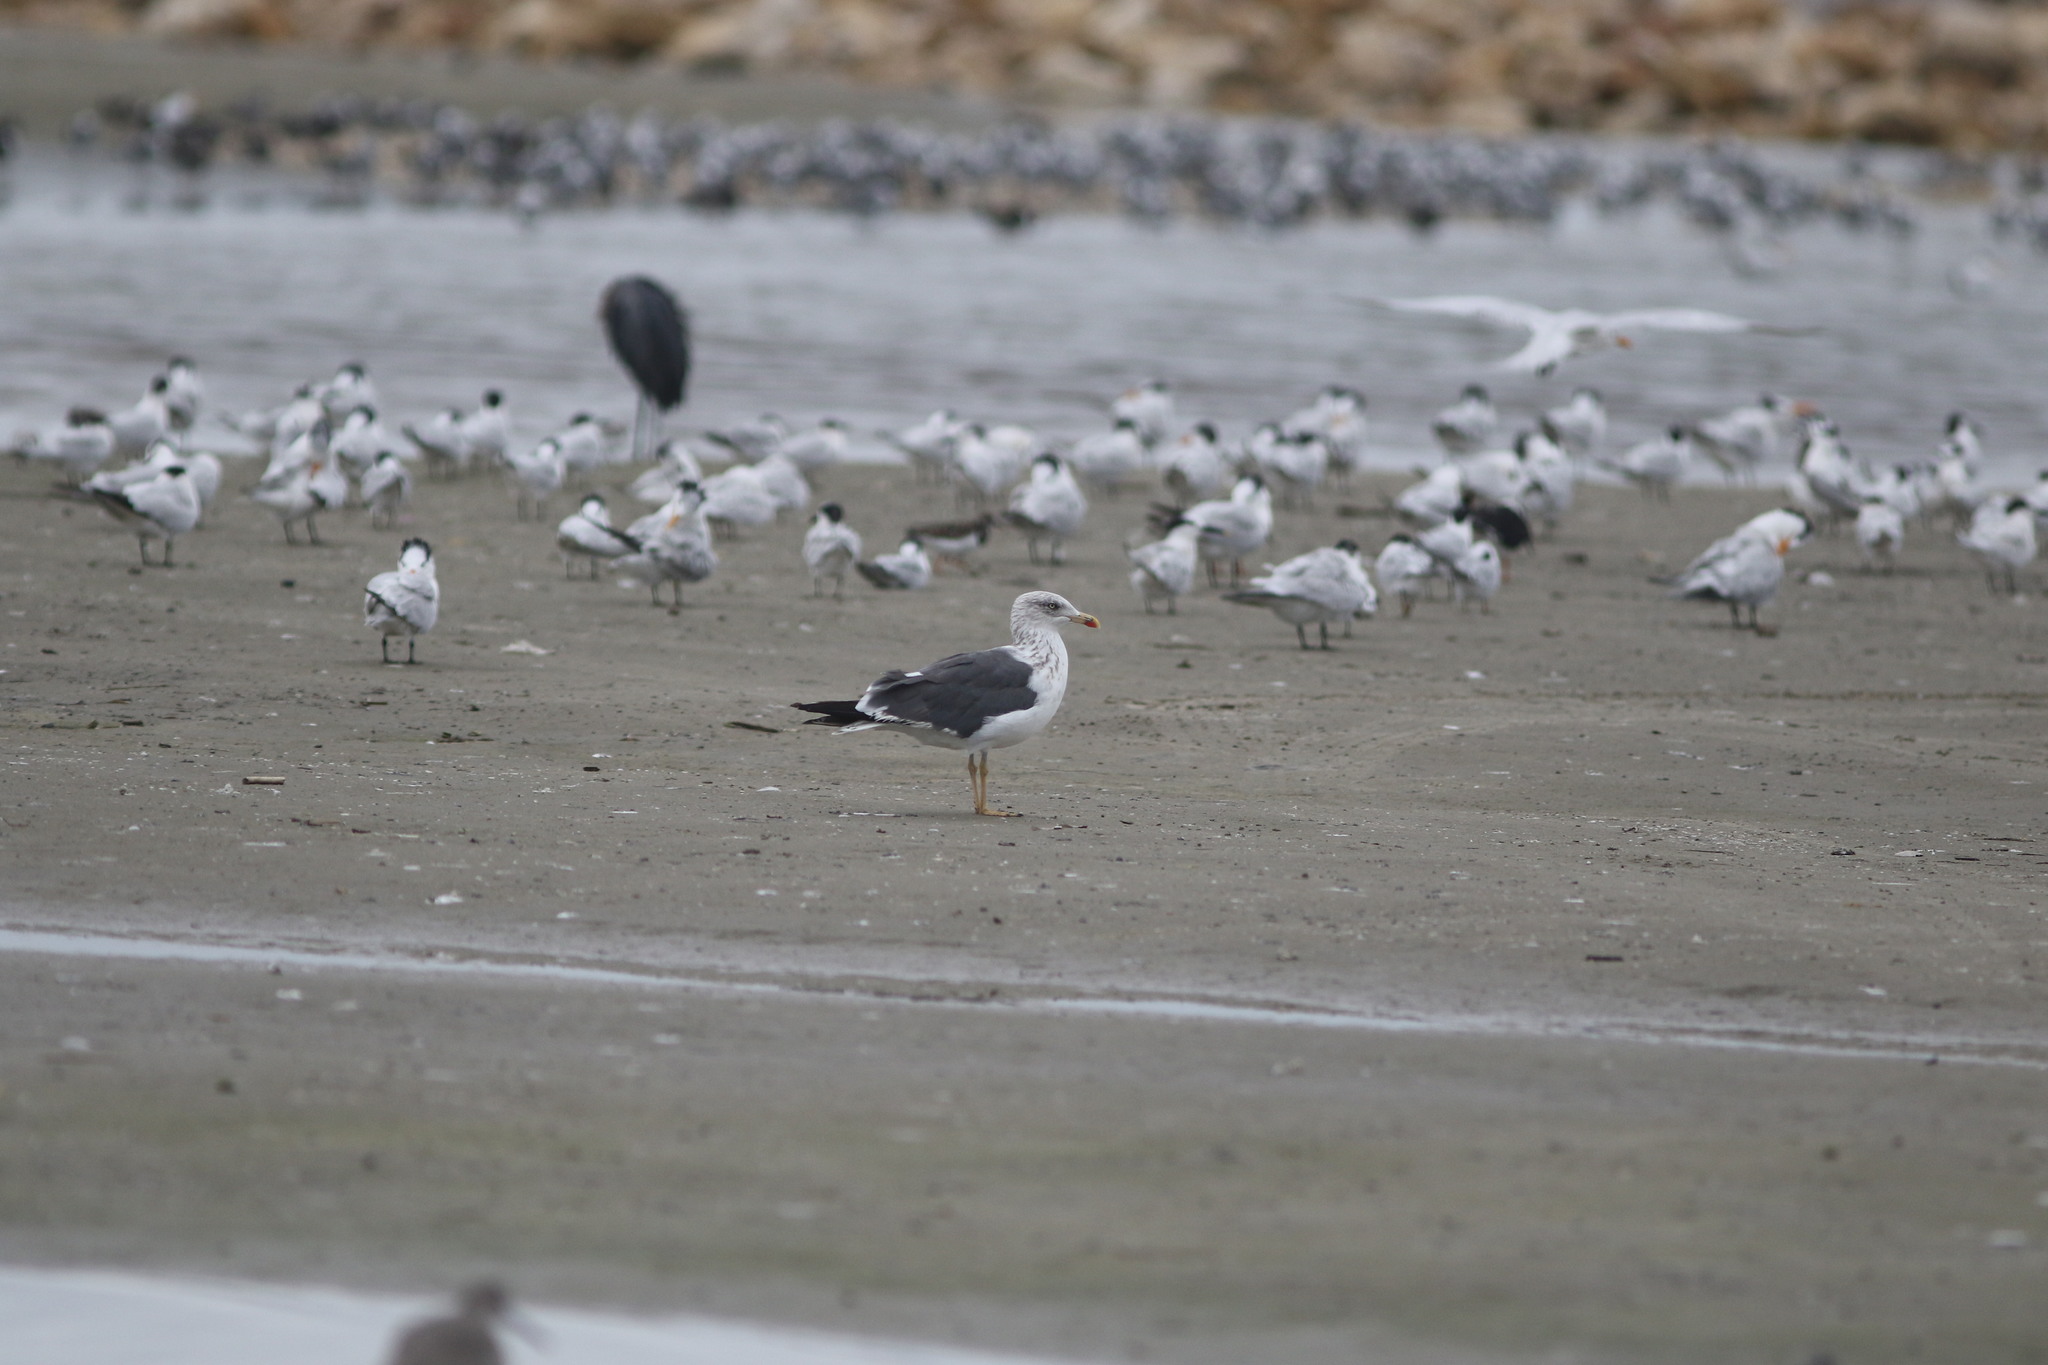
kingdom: Animalia
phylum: Chordata
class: Aves
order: Charadriiformes
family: Laridae
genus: Larus
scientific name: Larus fuscus
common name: Lesser black-backed gull
